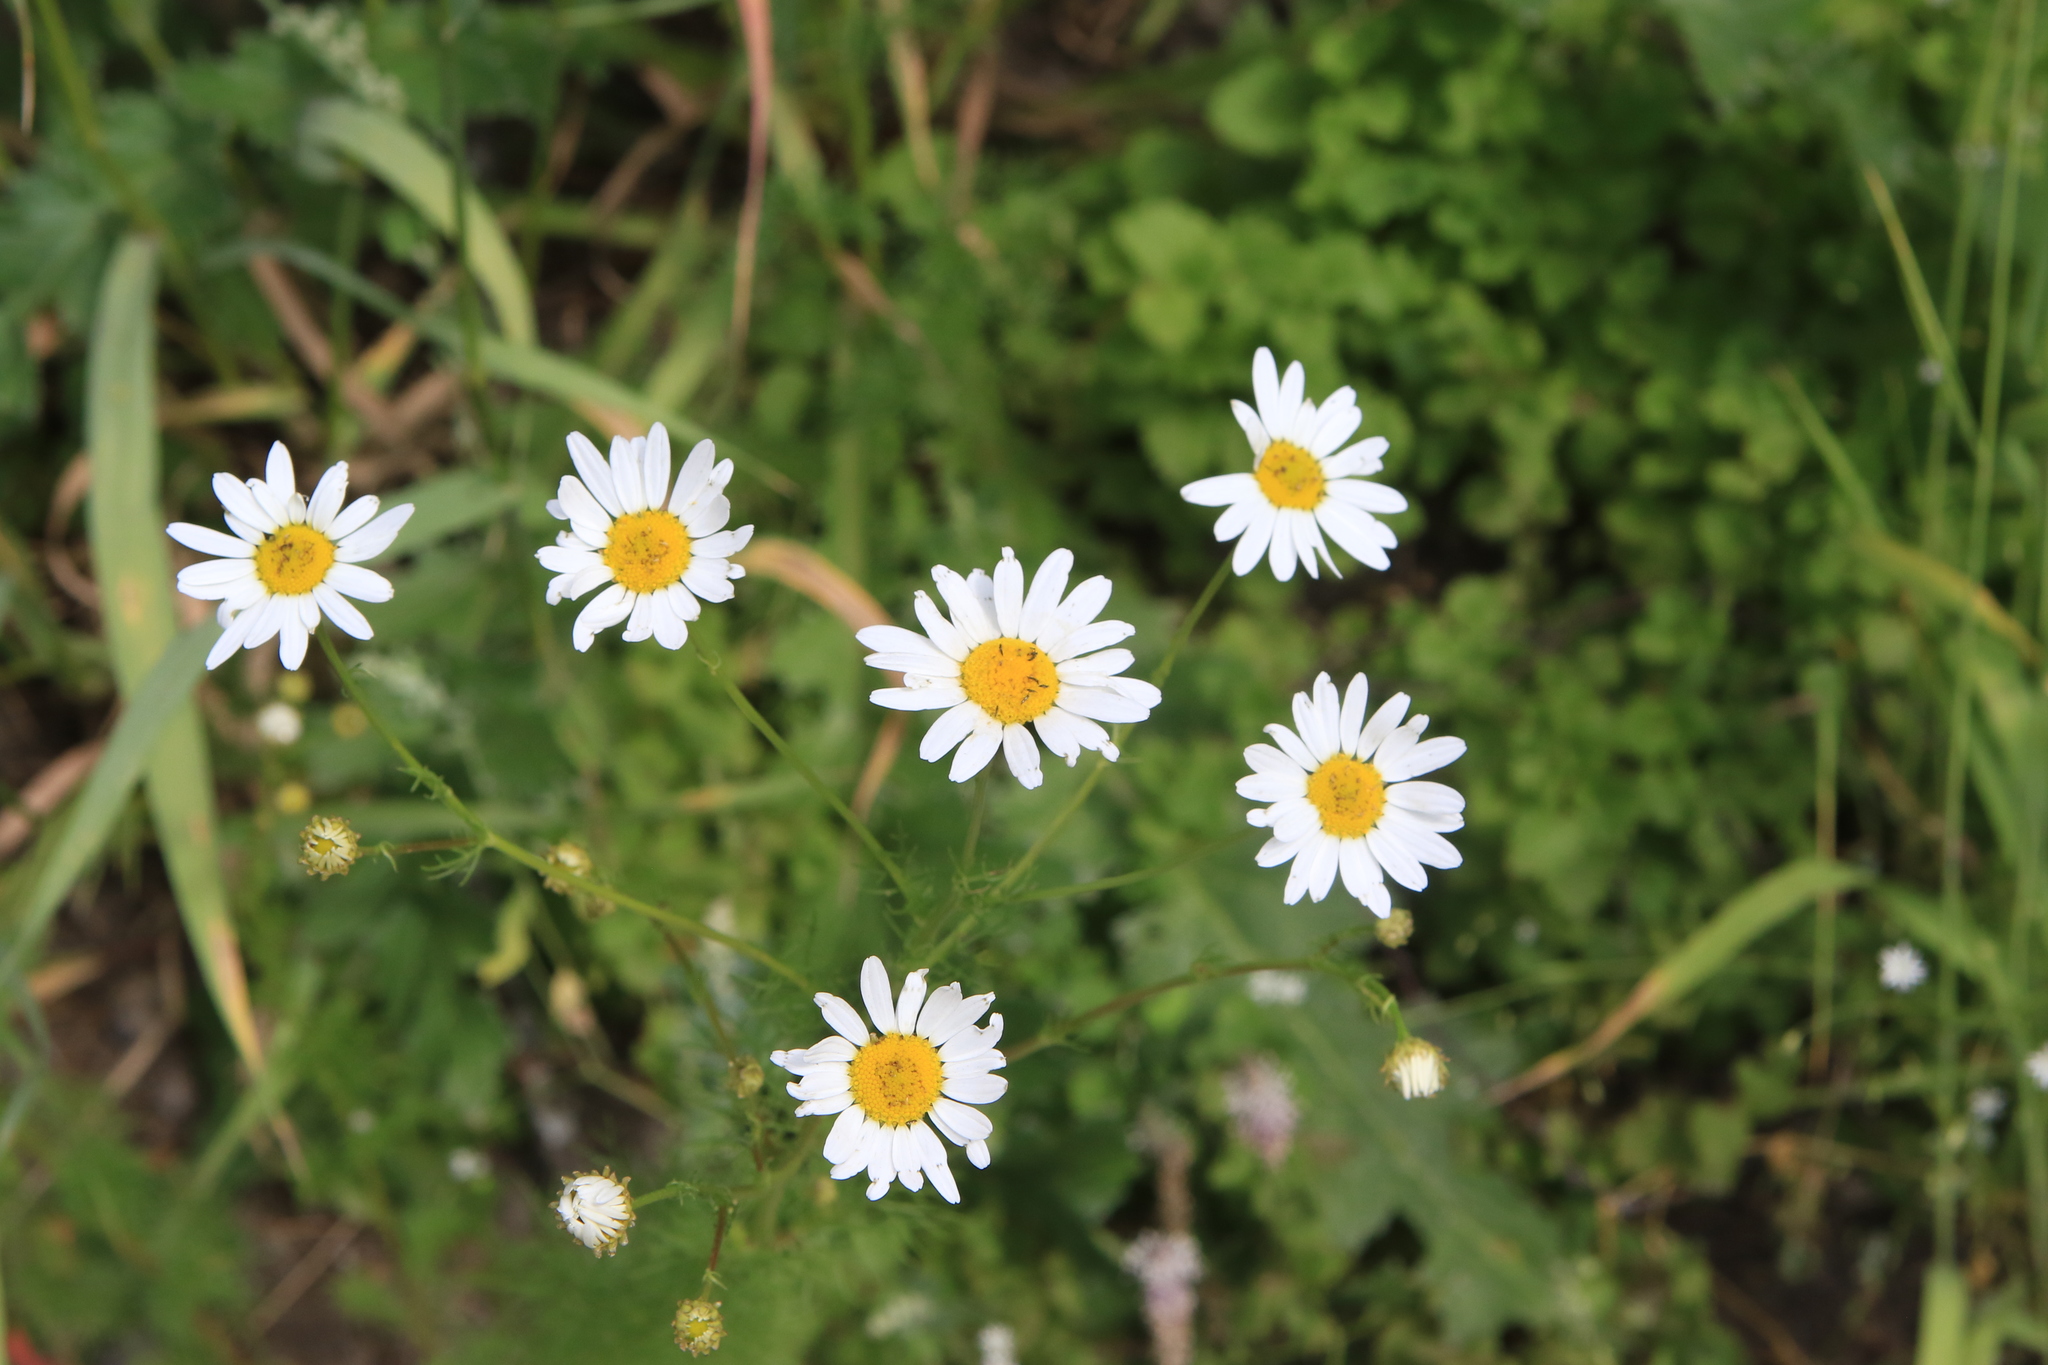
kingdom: Plantae
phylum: Tracheophyta
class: Magnoliopsida
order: Asterales
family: Asteraceae
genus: Tripleurospermum
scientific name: Tripleurospermum inodorum
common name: Scentless mayweed
